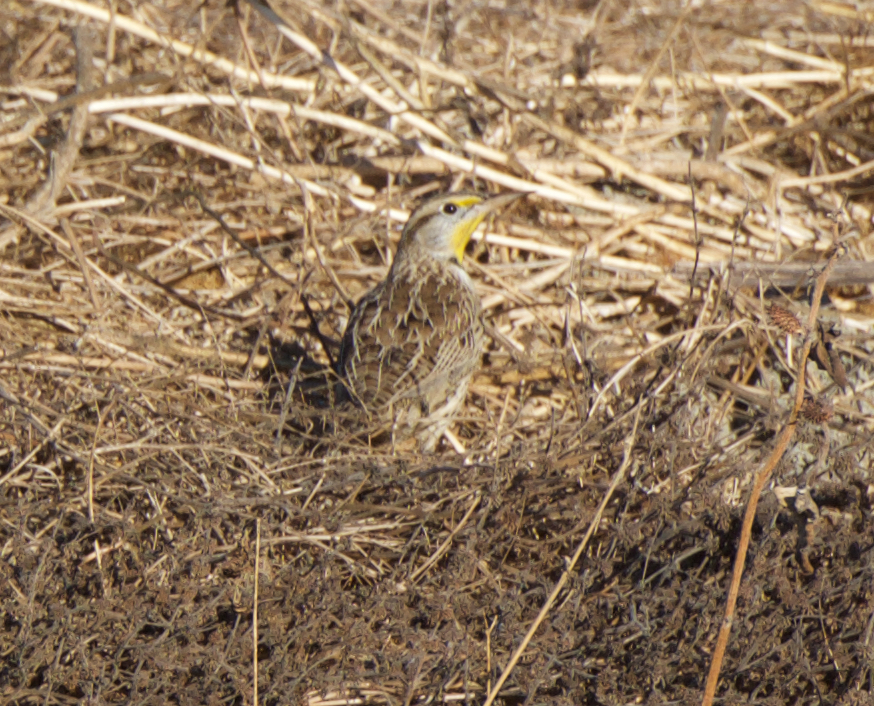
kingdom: Animalia
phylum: Chordata
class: Aves
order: Passeriformes
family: Icteridae
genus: Sturnella
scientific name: Sturnella neglecta
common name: Western meadowlark
